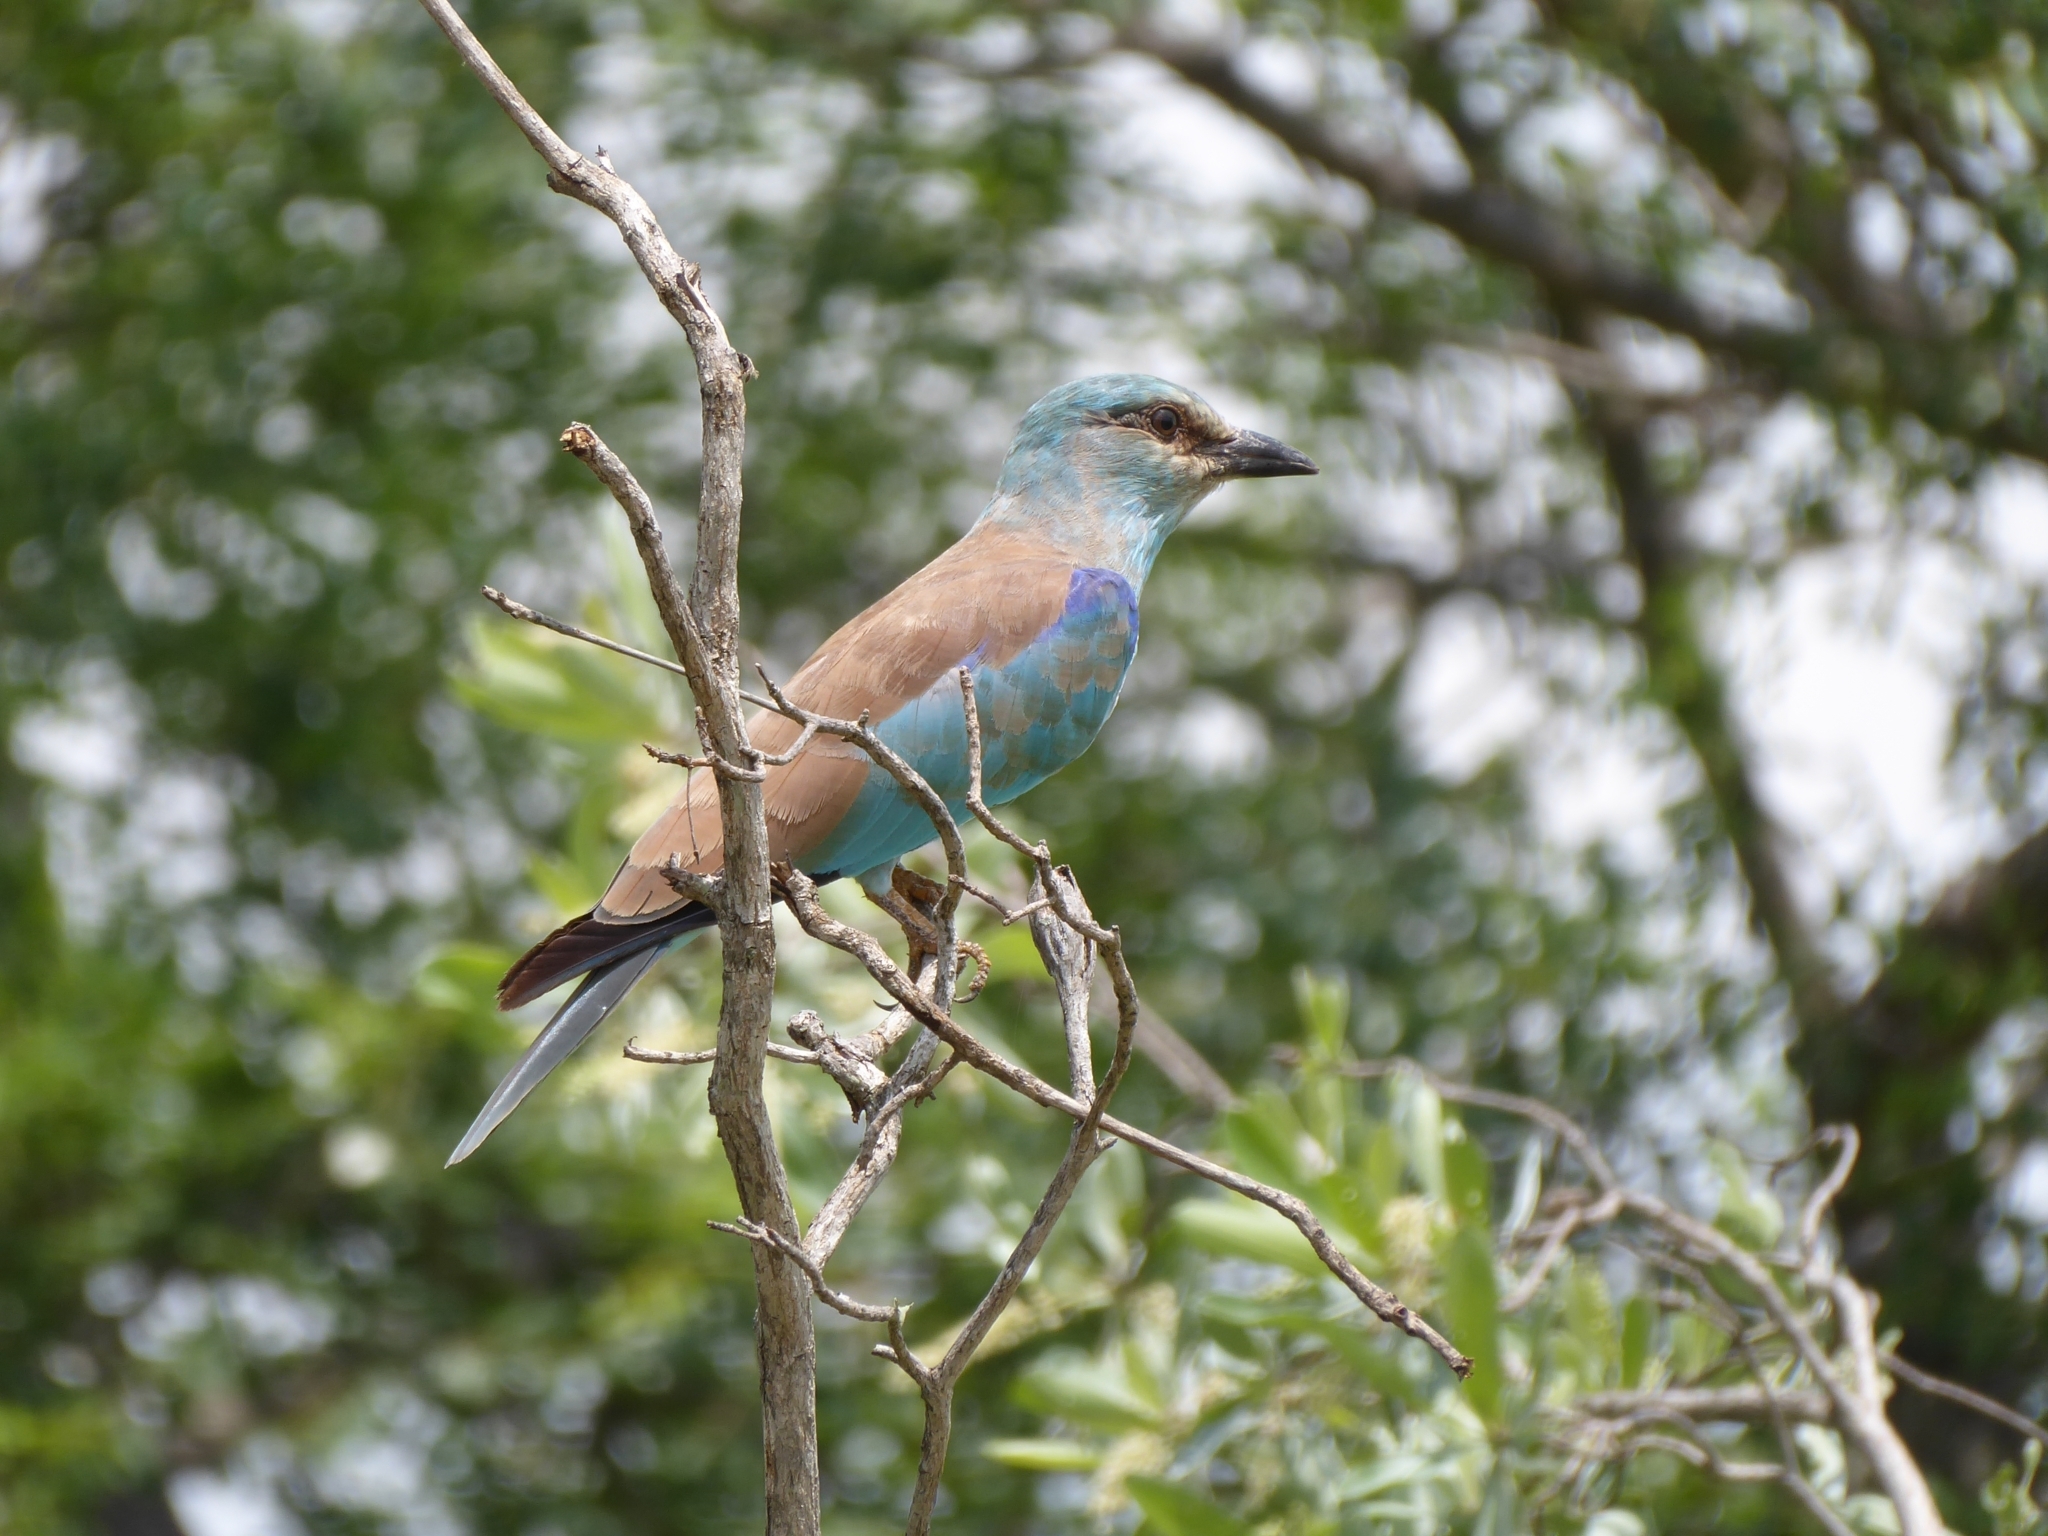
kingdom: Animalia
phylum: Chordata
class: Aves
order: Coraciiformes
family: Coraciidae
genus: Coracias
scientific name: Coracias garrulus
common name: European roller
